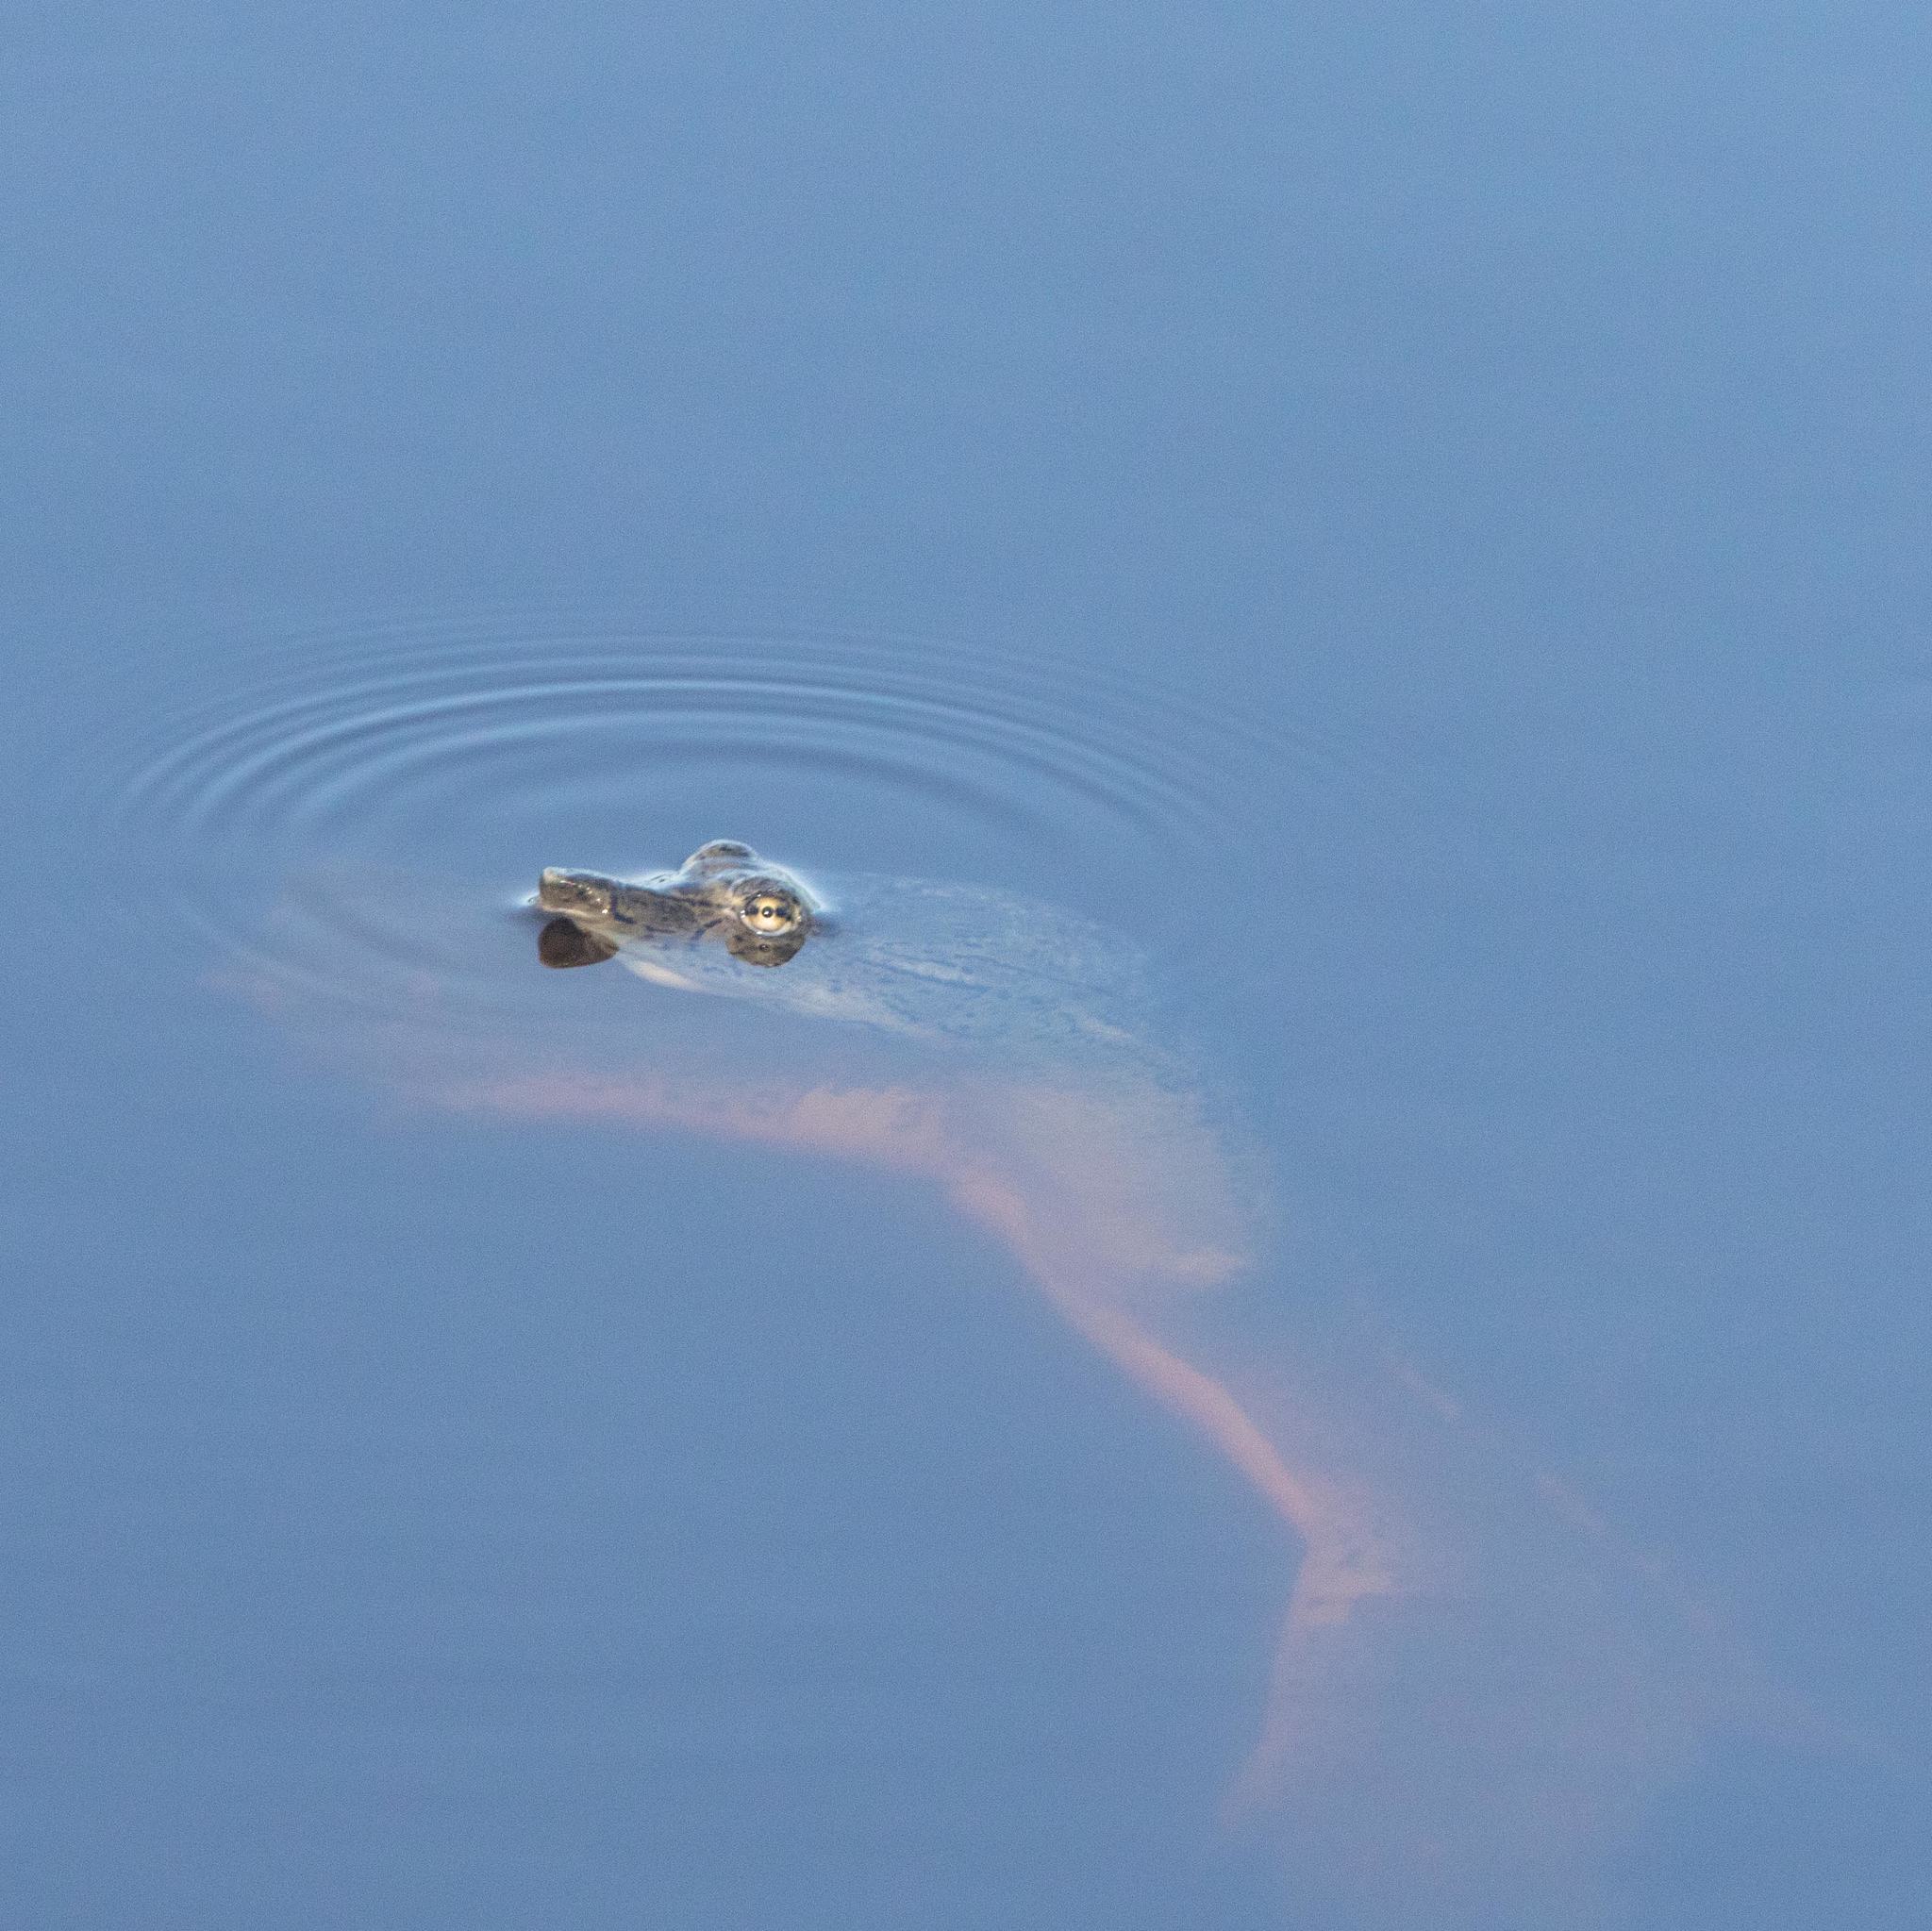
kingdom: Animalia
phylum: Chordata
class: Testudines
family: Trionychidae
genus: Apalone
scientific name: Apalone spinifera
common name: Spiny softshell turtle
